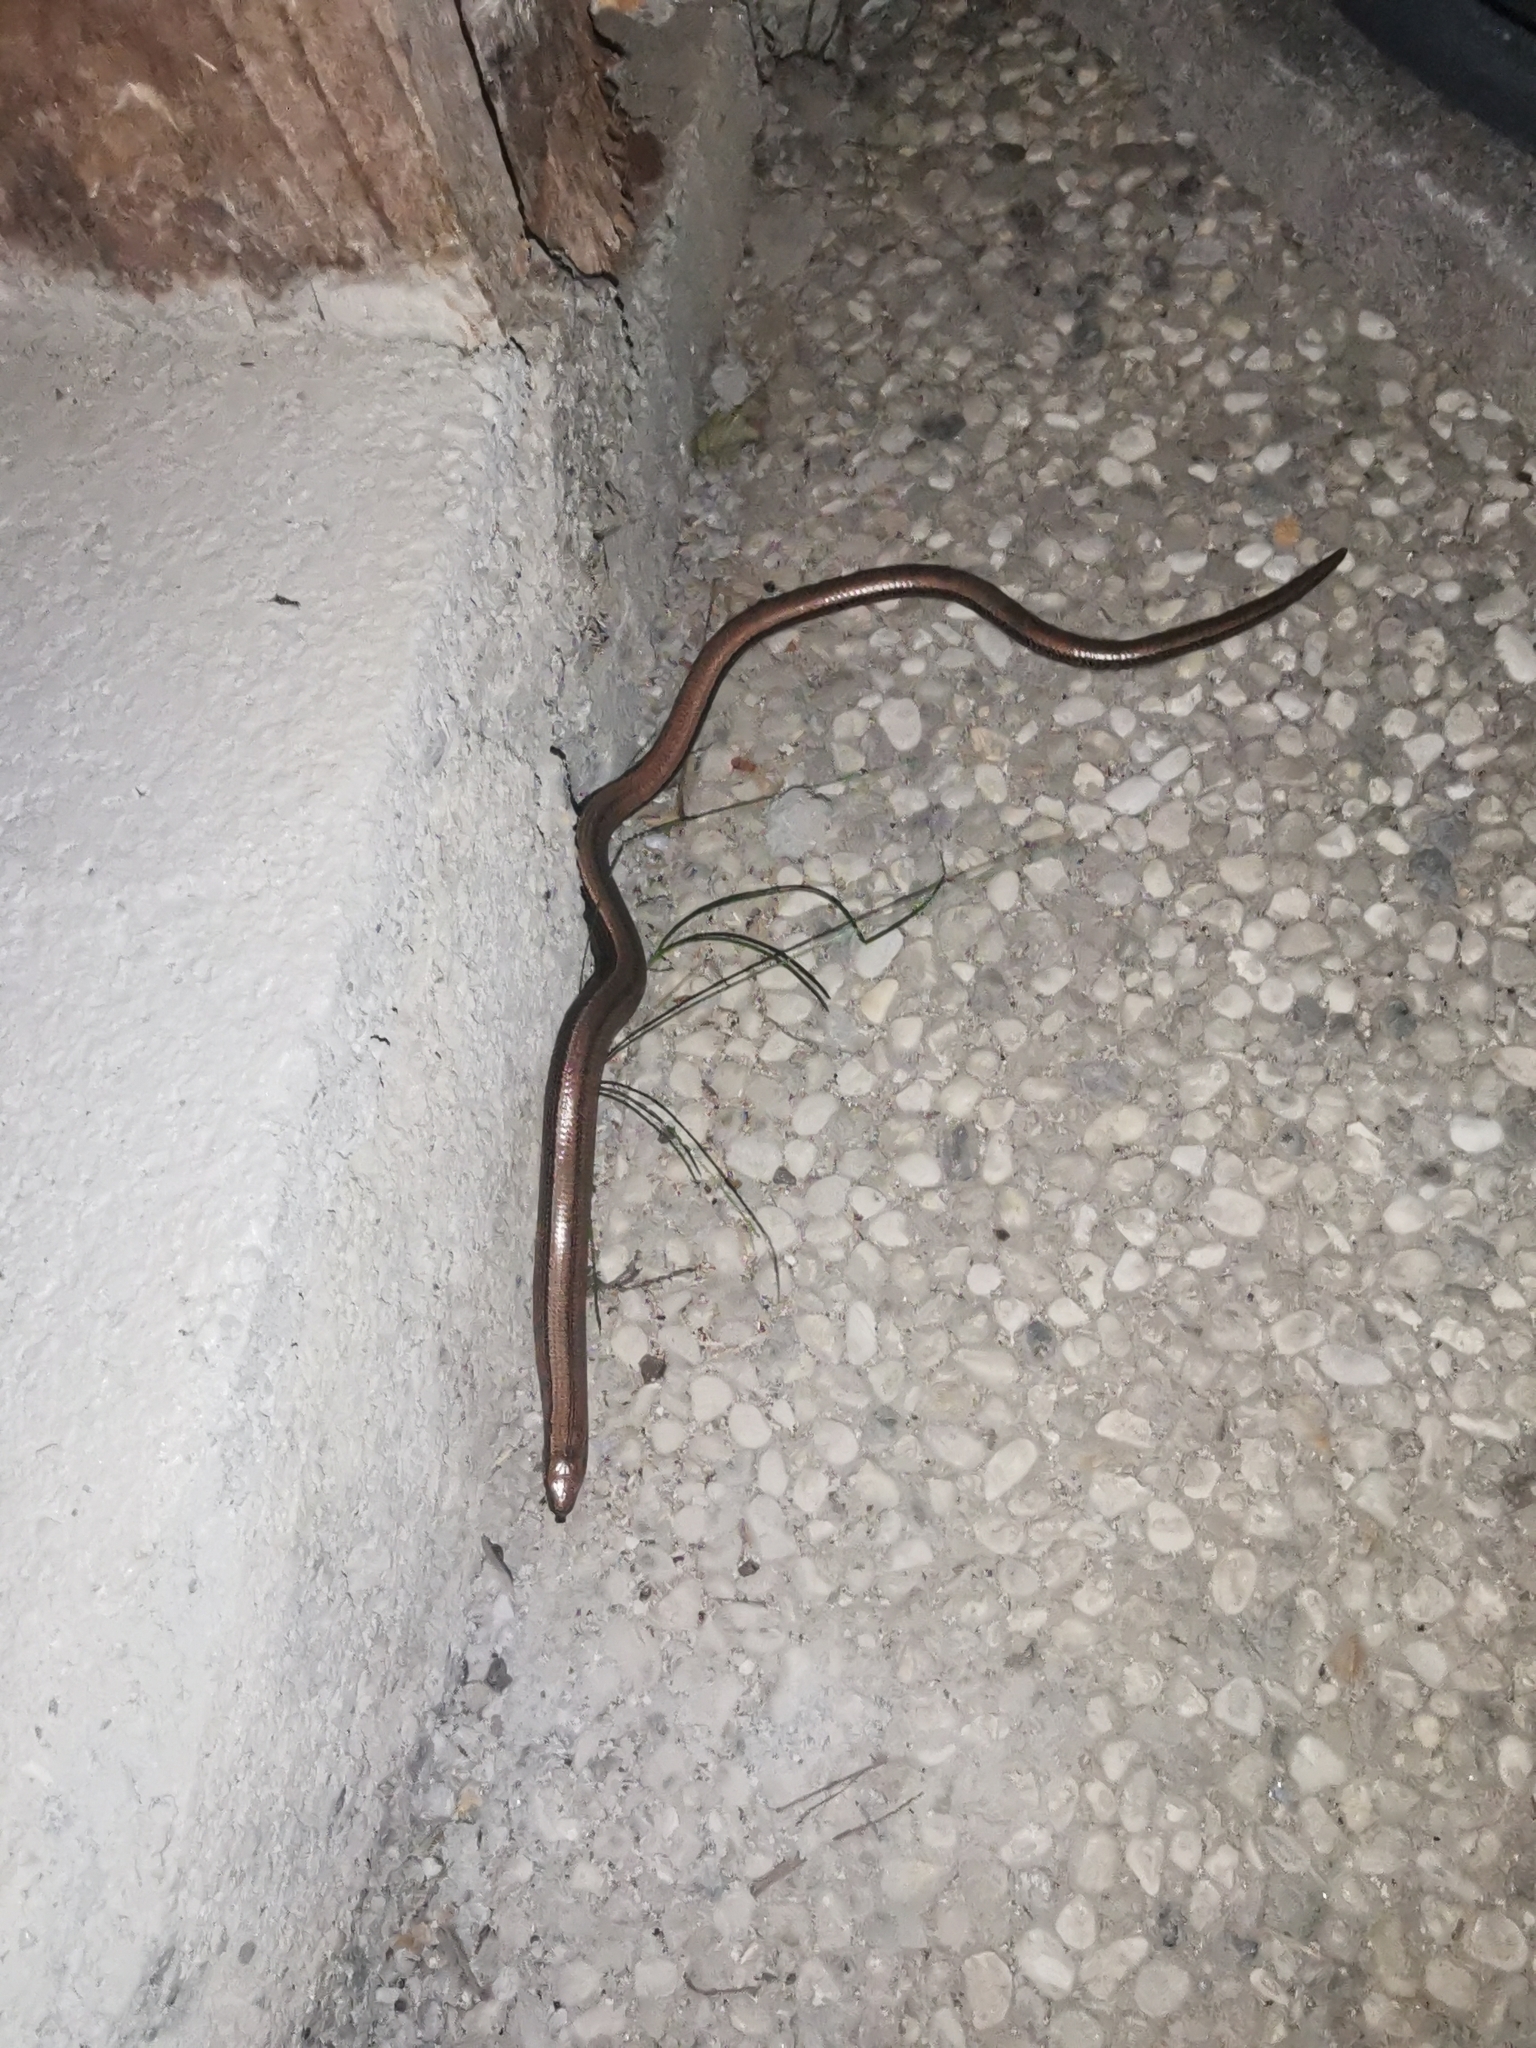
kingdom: Animalia
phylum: Chordata
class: Squamata
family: Anguidae
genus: Anguis
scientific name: Anguis fragilis
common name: Slow worm
